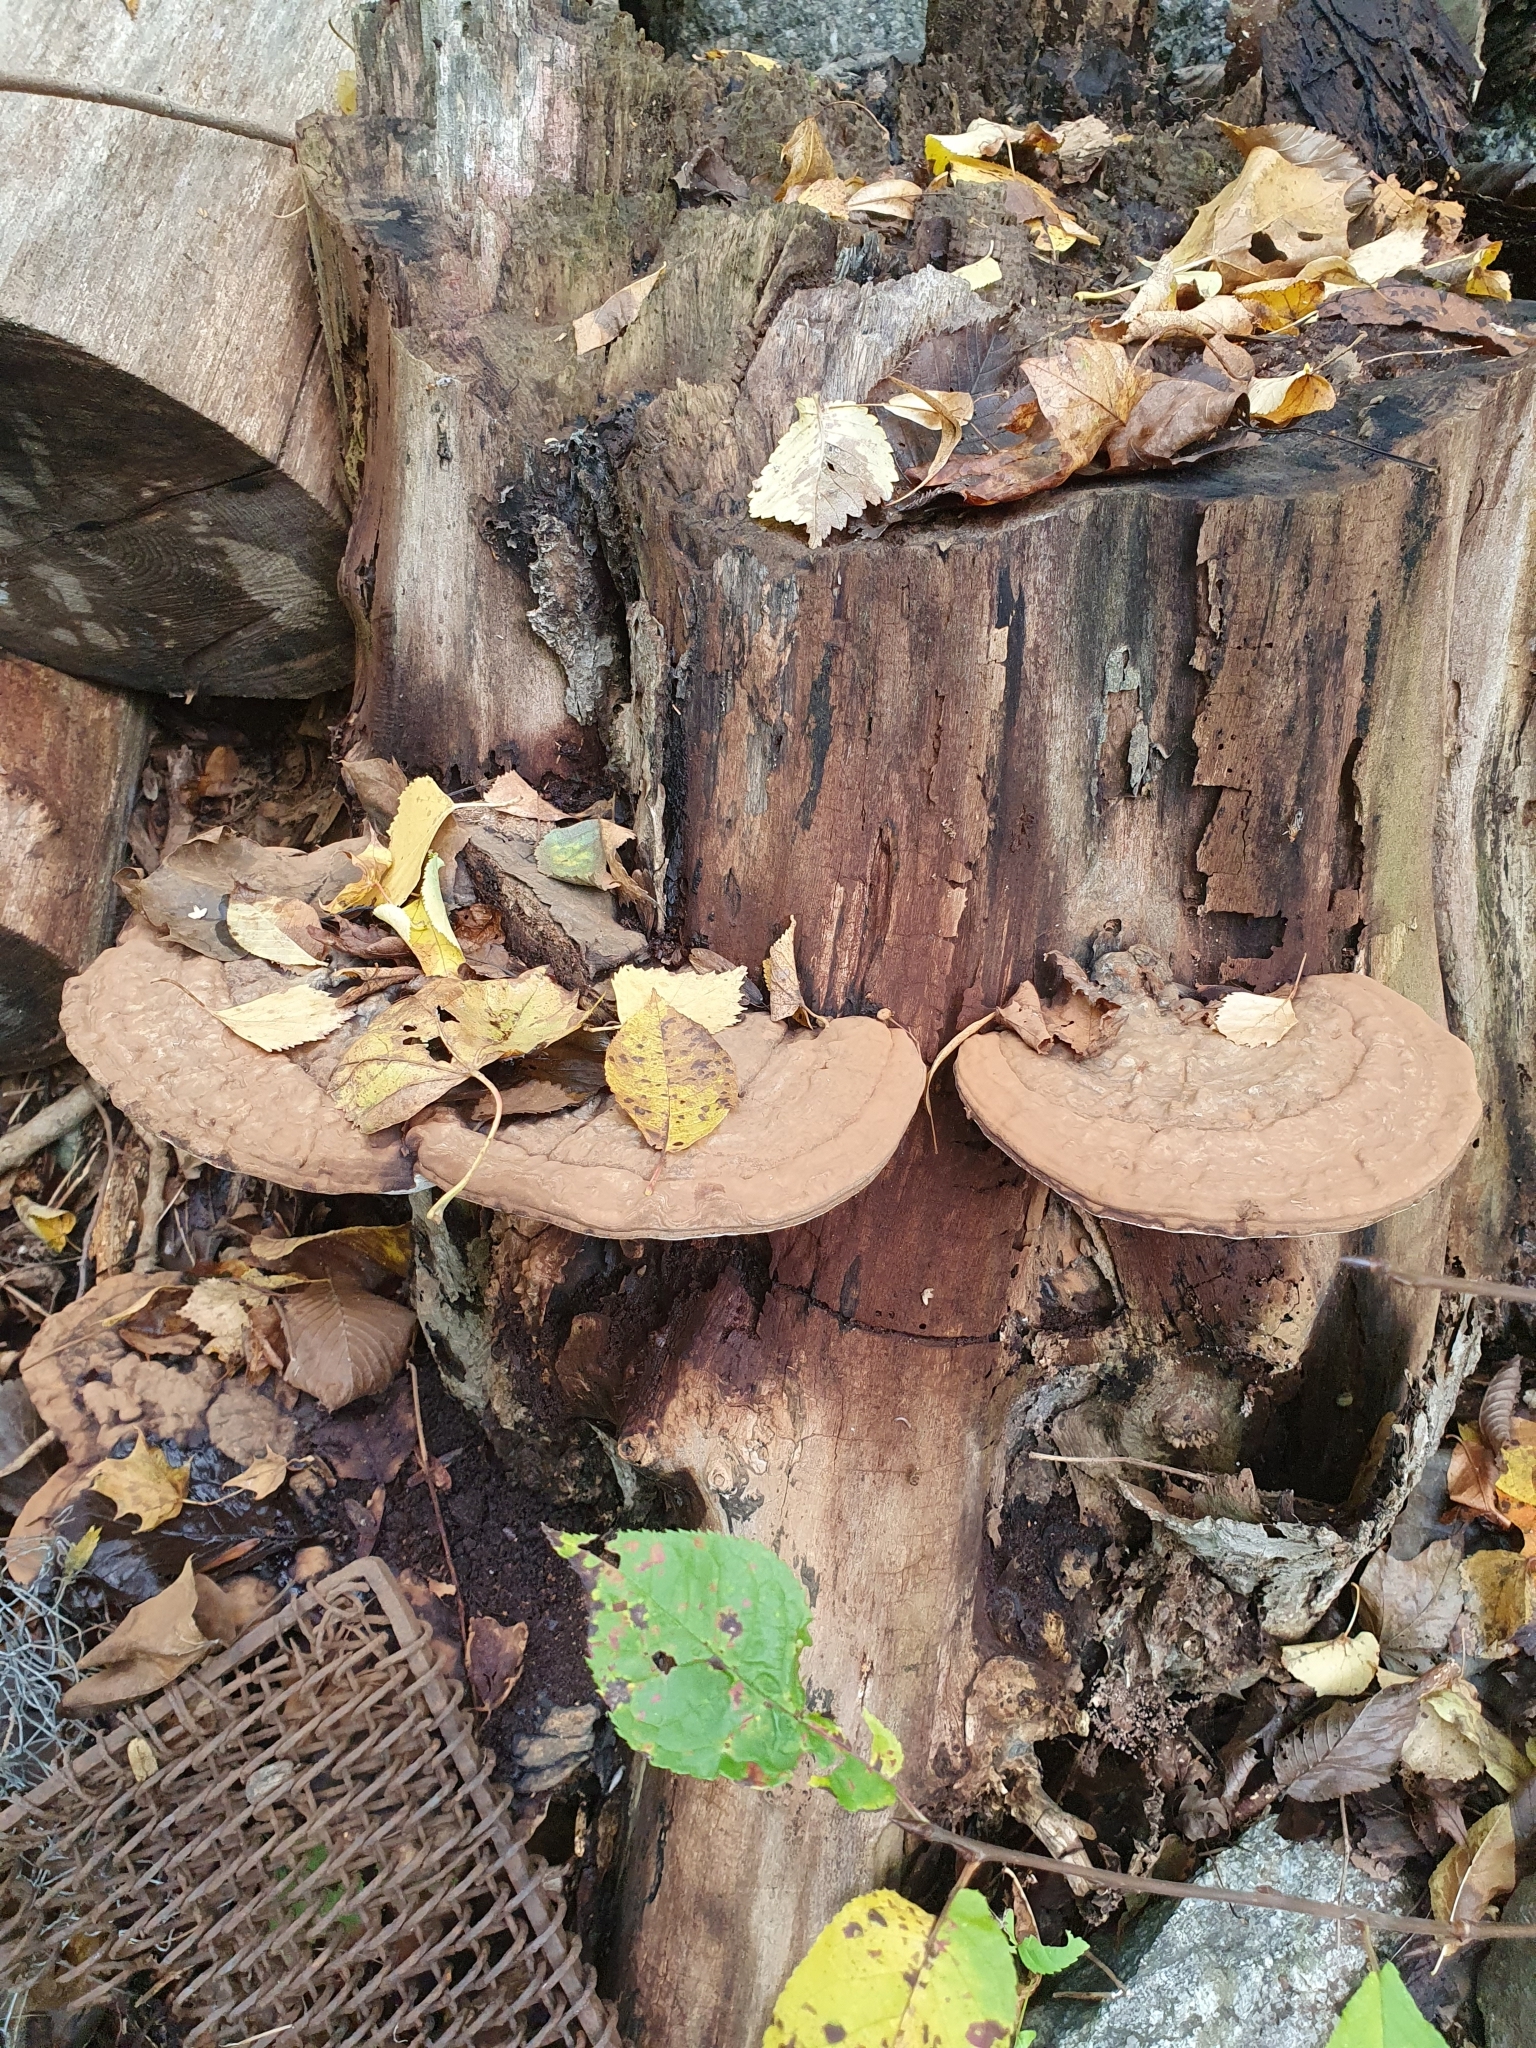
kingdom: Fungi
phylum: Basidiomycota
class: Agaricomycetes
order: Polyporales
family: Polyporaceae
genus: Ganoderma
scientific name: Ganoderma applanatum
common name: Artist's bracket
